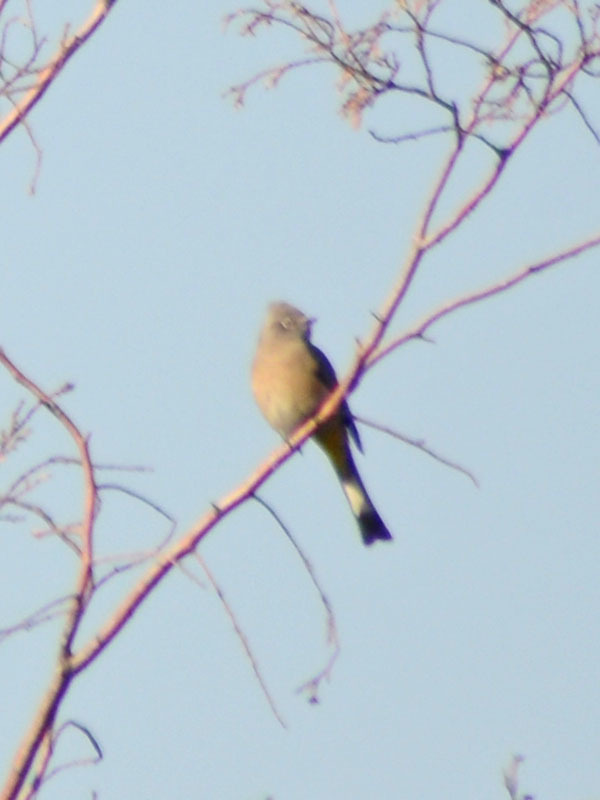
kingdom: Animalia
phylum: Chordata
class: Aves
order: Passeriformes
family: Ptilogonatidae
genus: Ptilogonys
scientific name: Ptilogonys cinereus
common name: Gray silky-flycatcher
